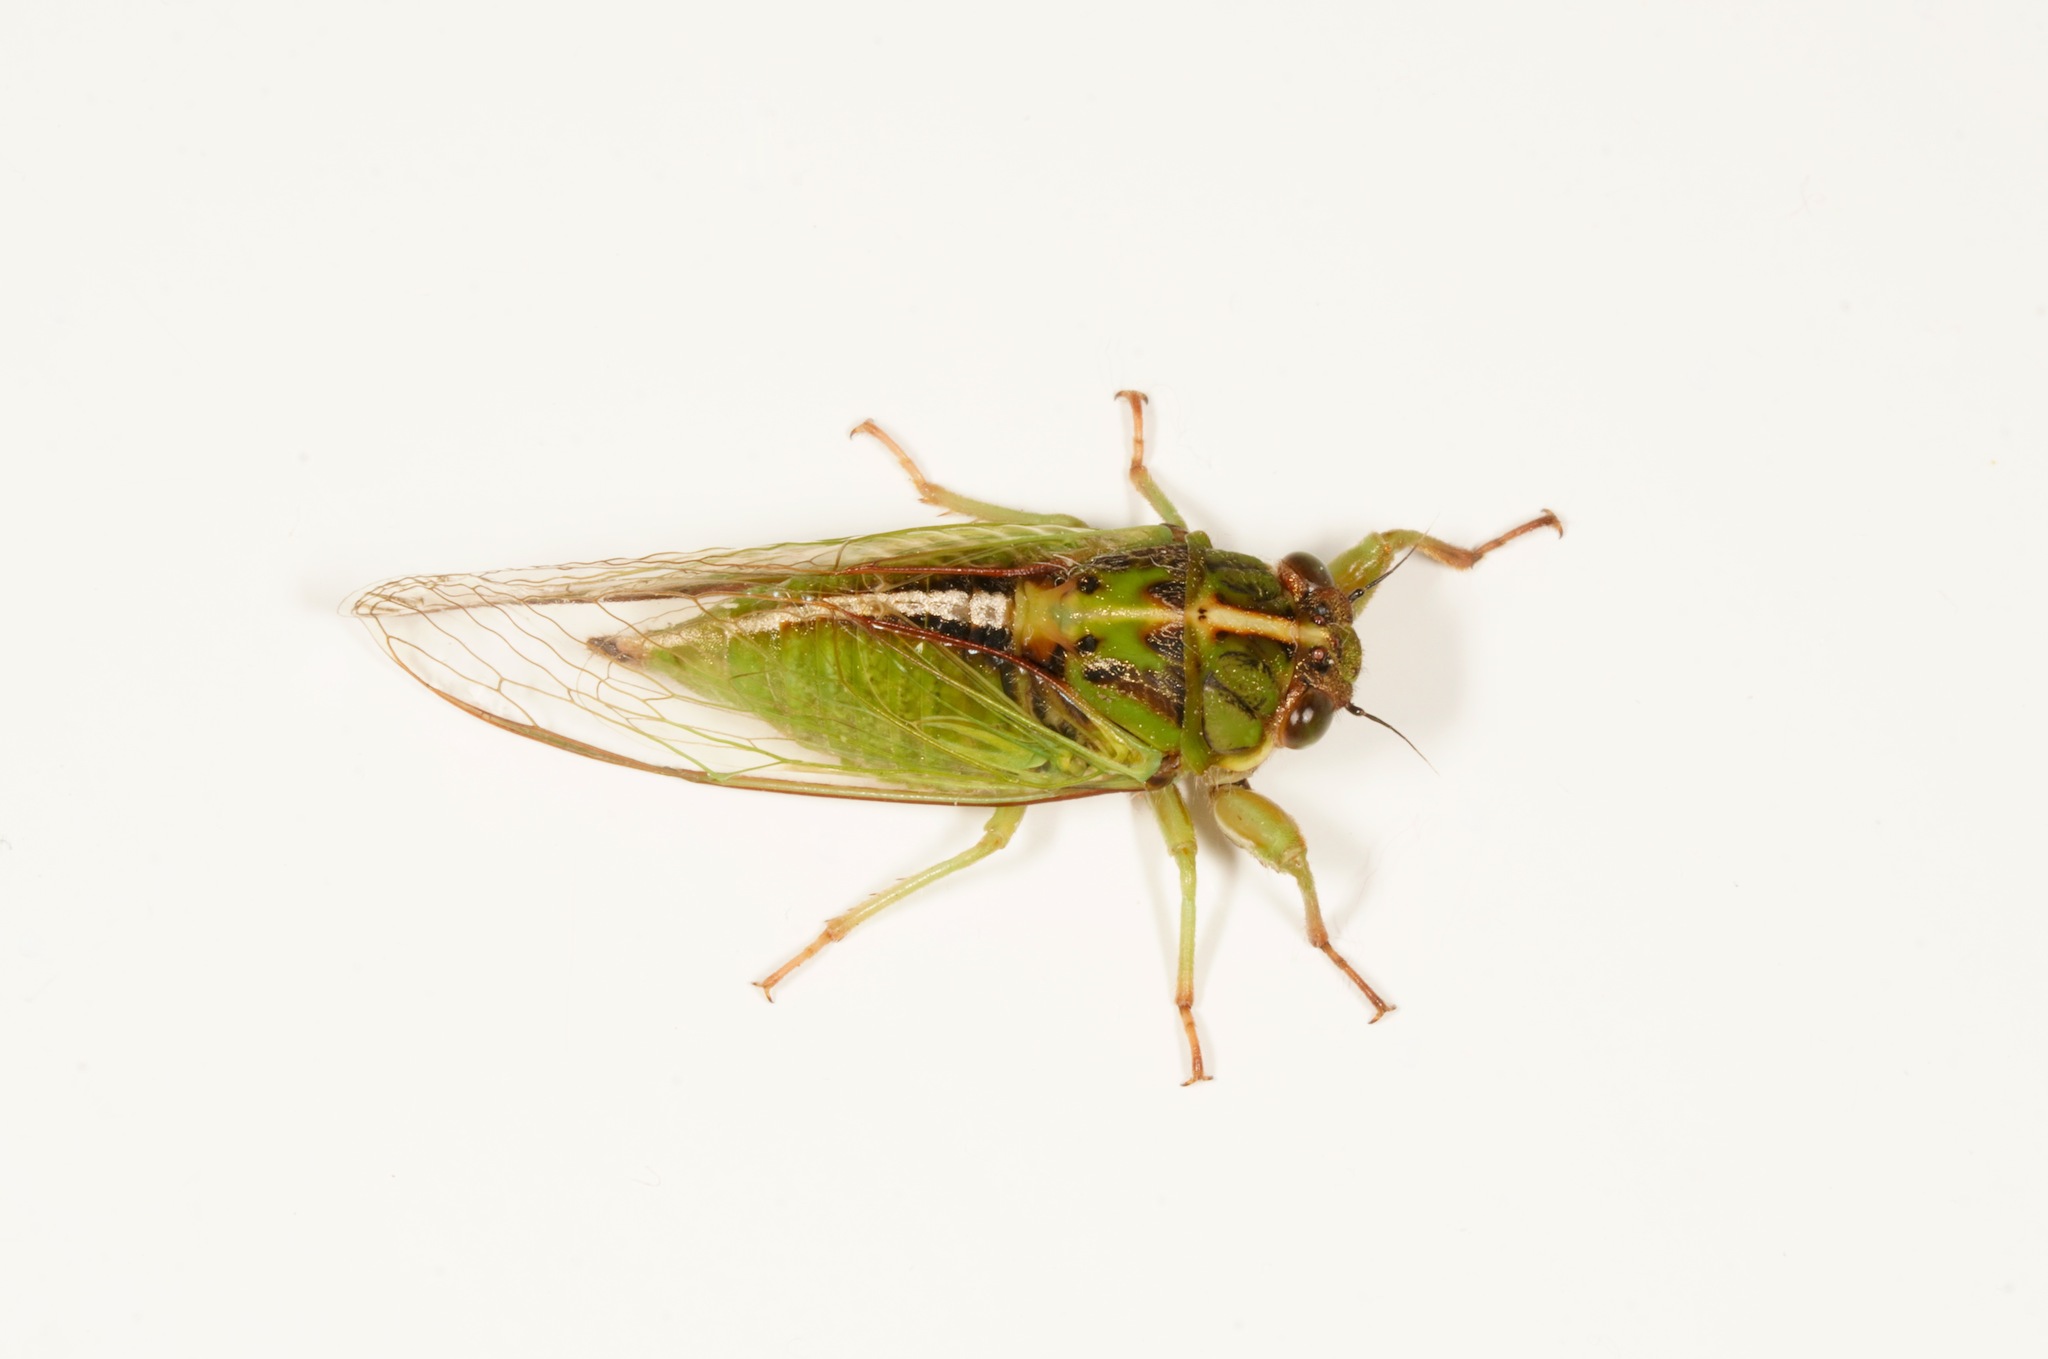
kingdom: Animalia
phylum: Arthropoda
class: Insecta
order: Hemiptera
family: Cicadidae
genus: Kikihia
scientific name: Kikihia muta
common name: Variable cicada
